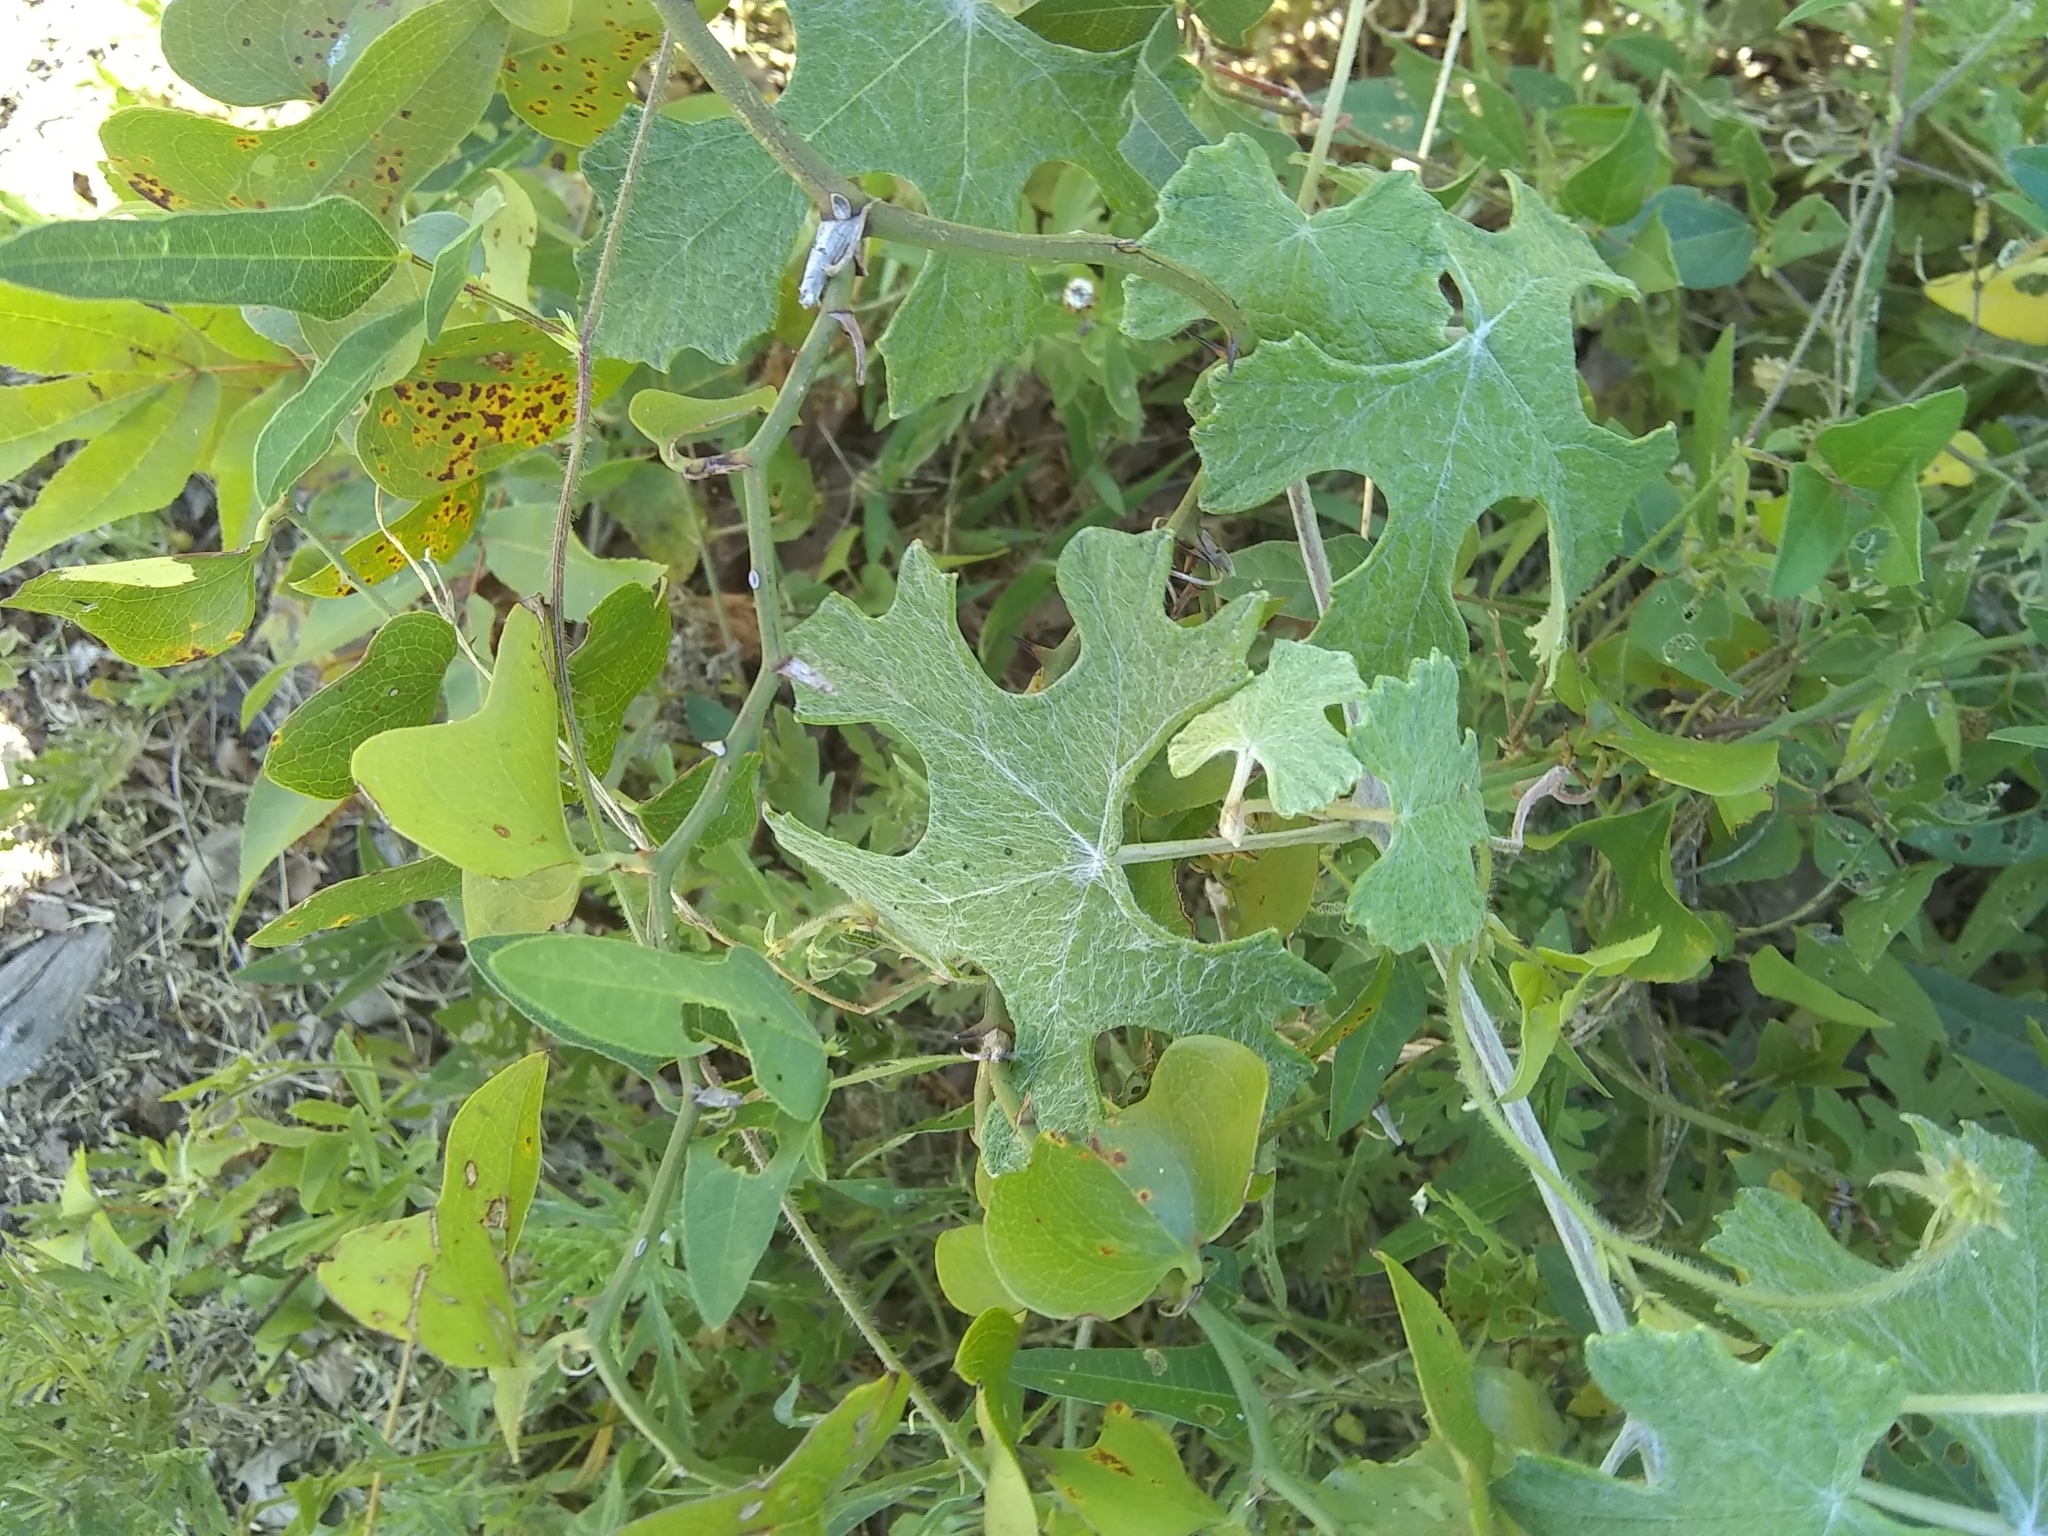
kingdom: Plantae
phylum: Tracheophyta
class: Magnoliopsida
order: Vitales
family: Vitaceae
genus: Vitis
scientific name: Vitis mustangensis
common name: Mustang grape
